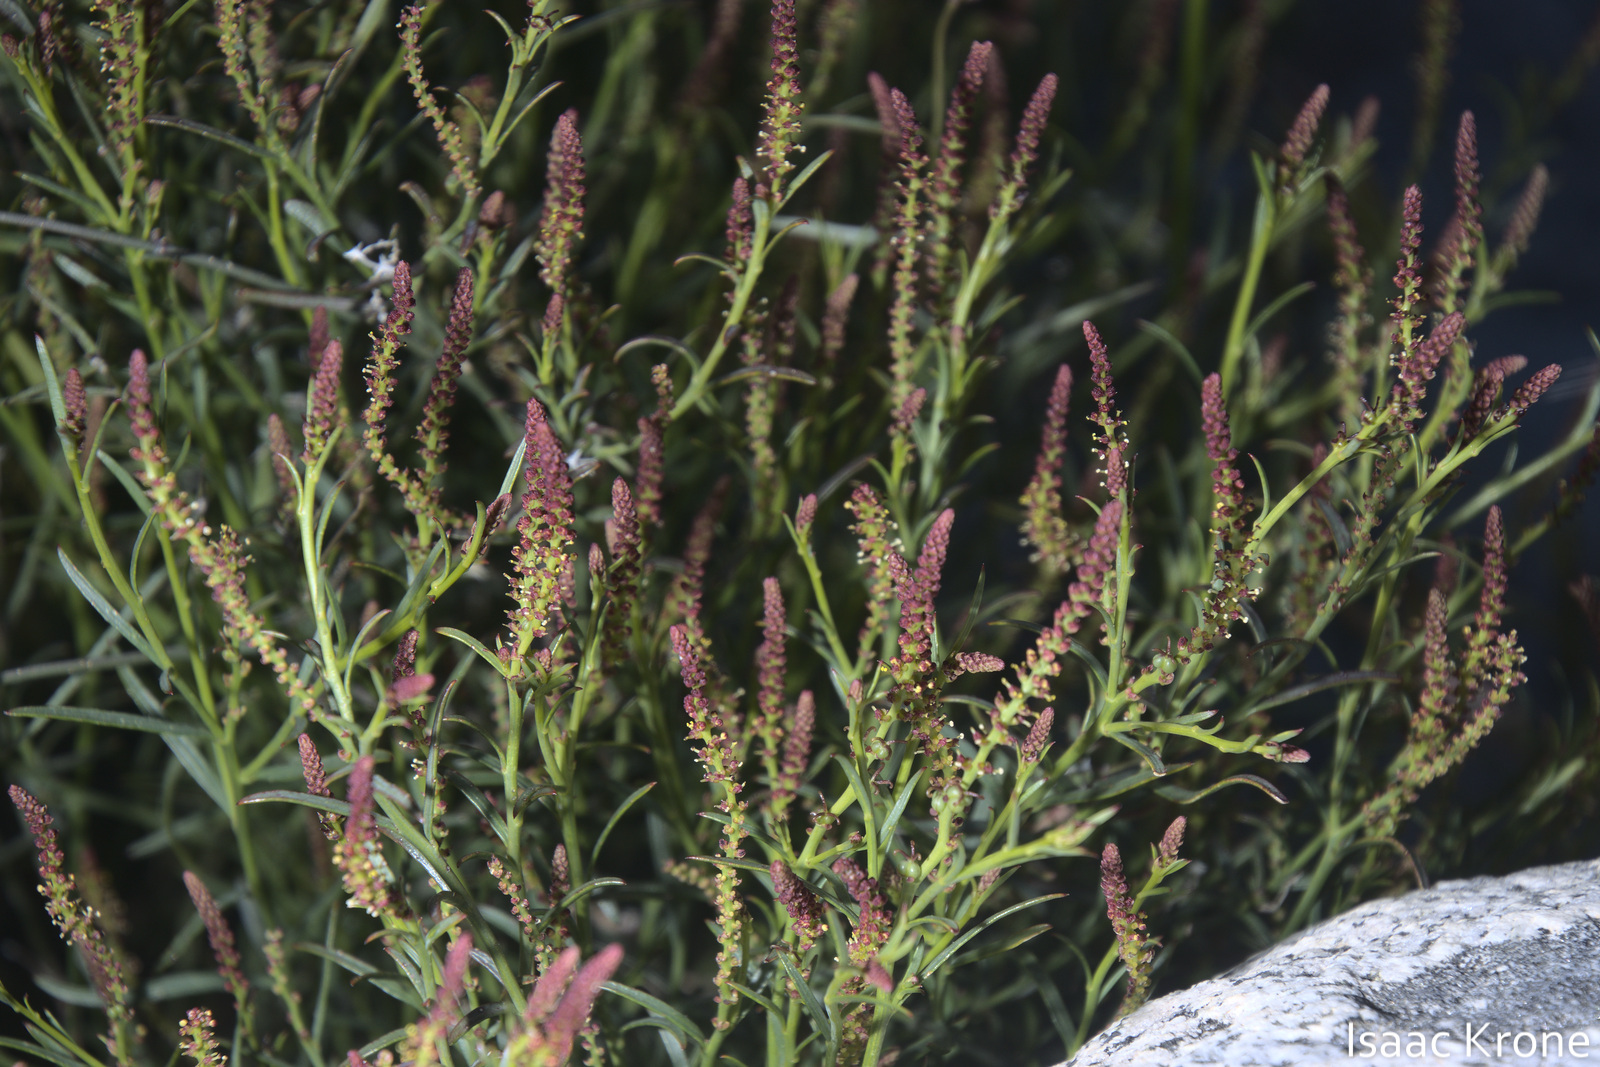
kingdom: Plantae
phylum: Tracheophyta
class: Magnoliopsida
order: Malpighiales
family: Euphorbiaceae
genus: Stillingia
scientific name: Stillingia linearifolia
